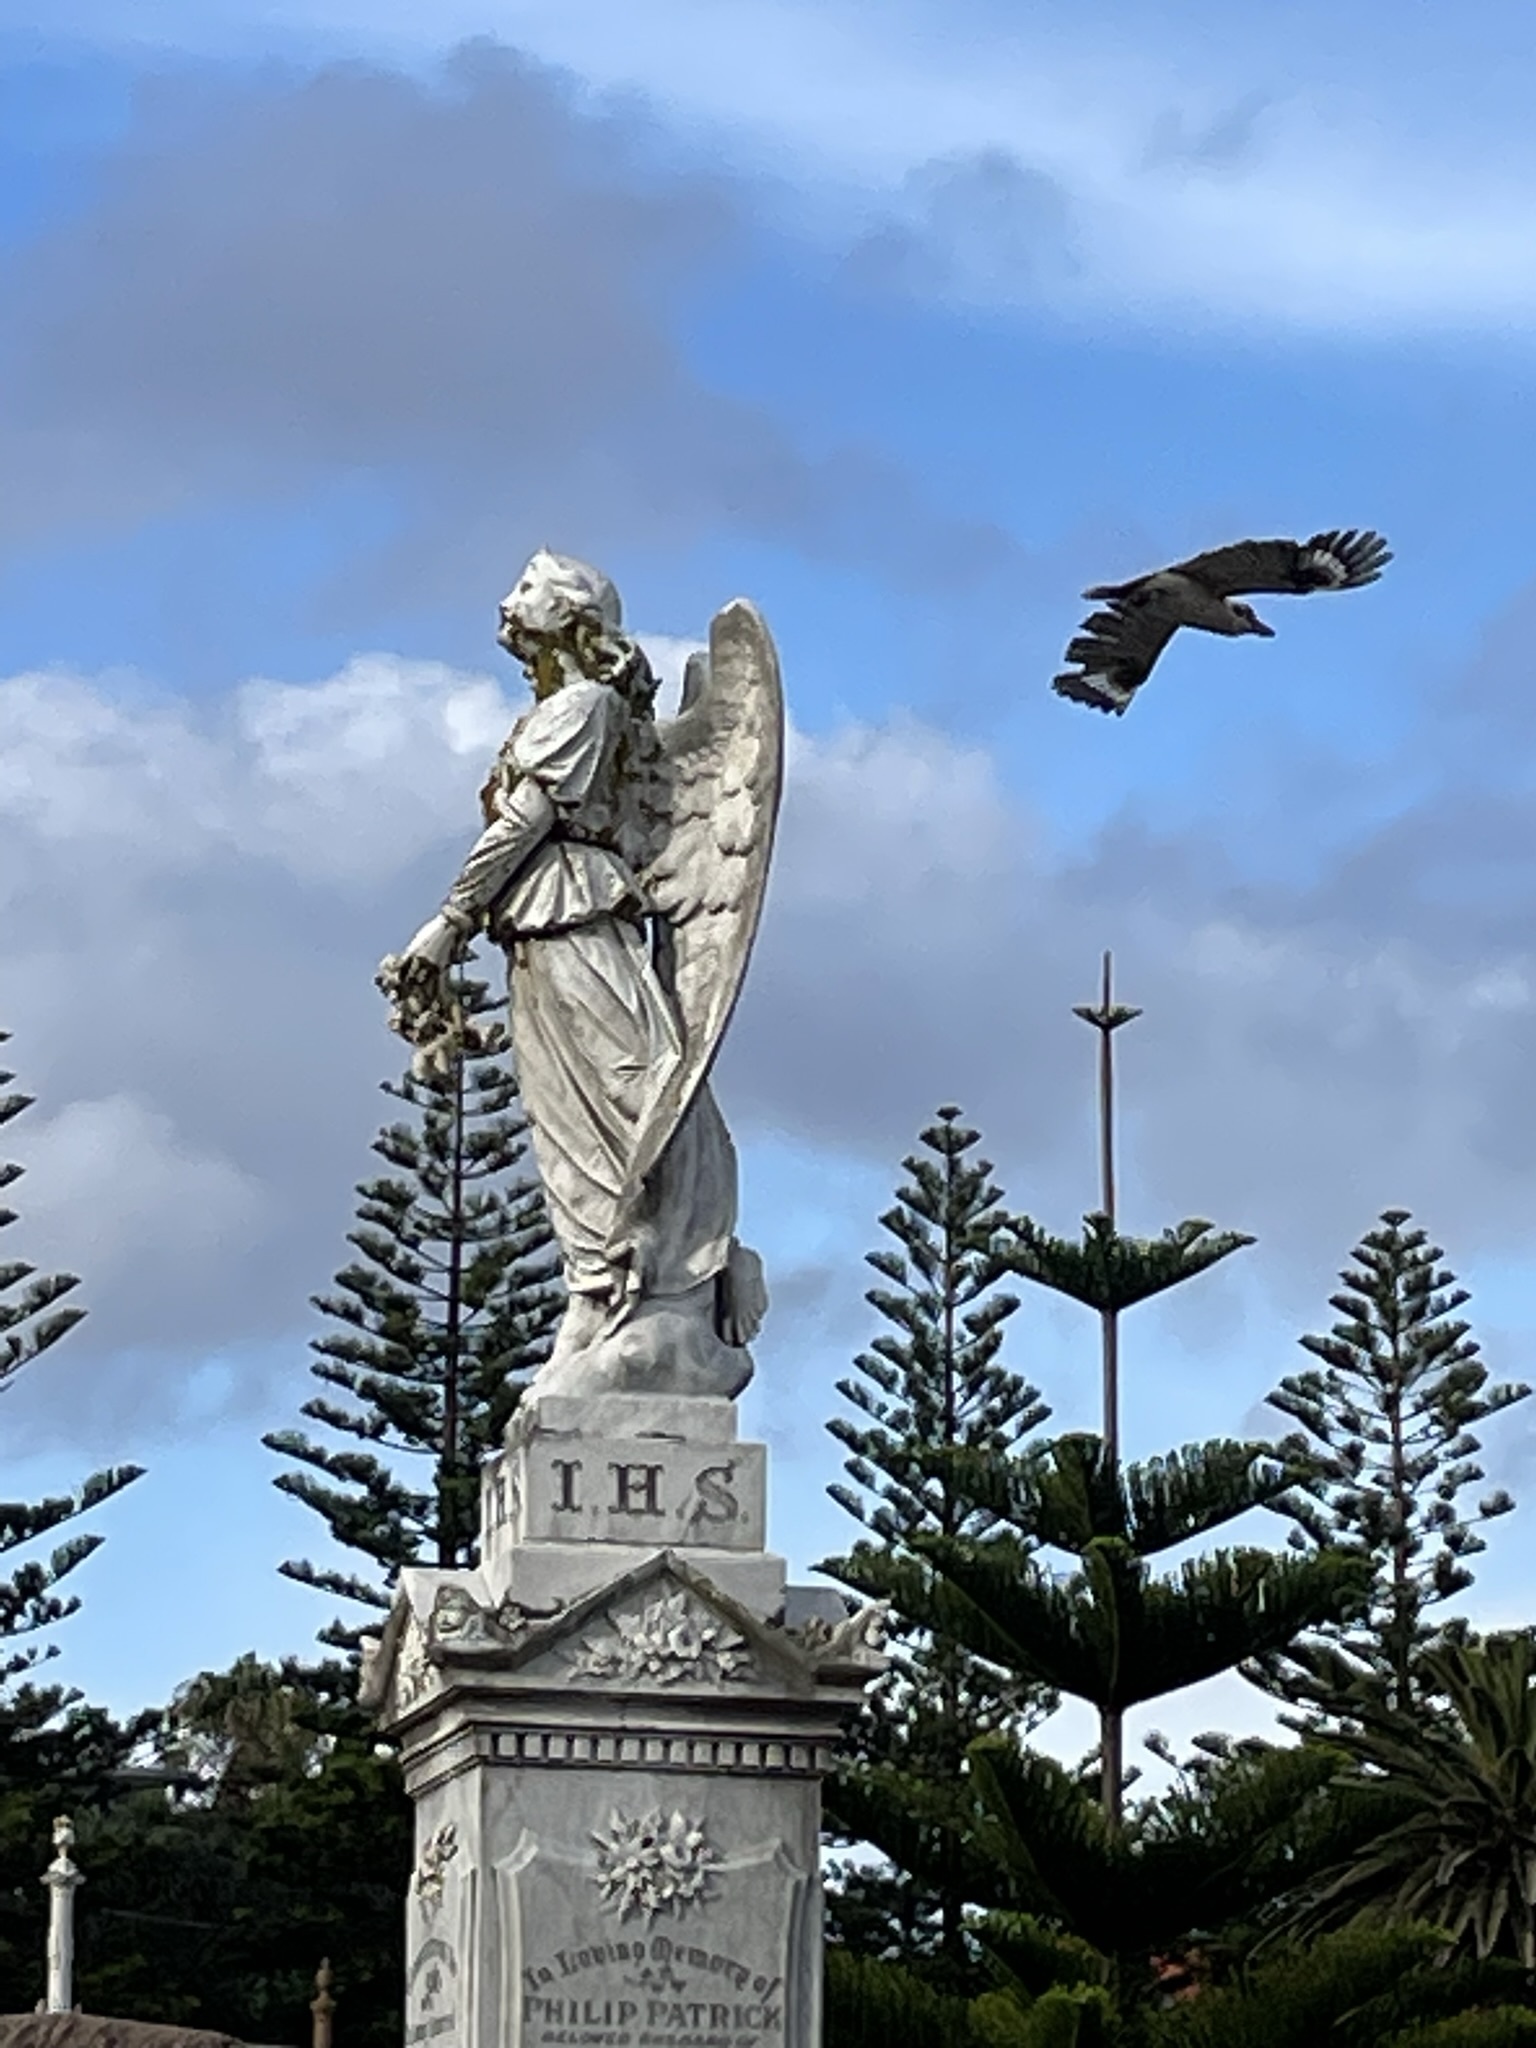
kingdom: Animalia
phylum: Chordata
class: Aves
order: Coraciiformes
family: Alcedinidae
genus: Dacelo
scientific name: Dacelo novaeguineae
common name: Laughing kookaburra
